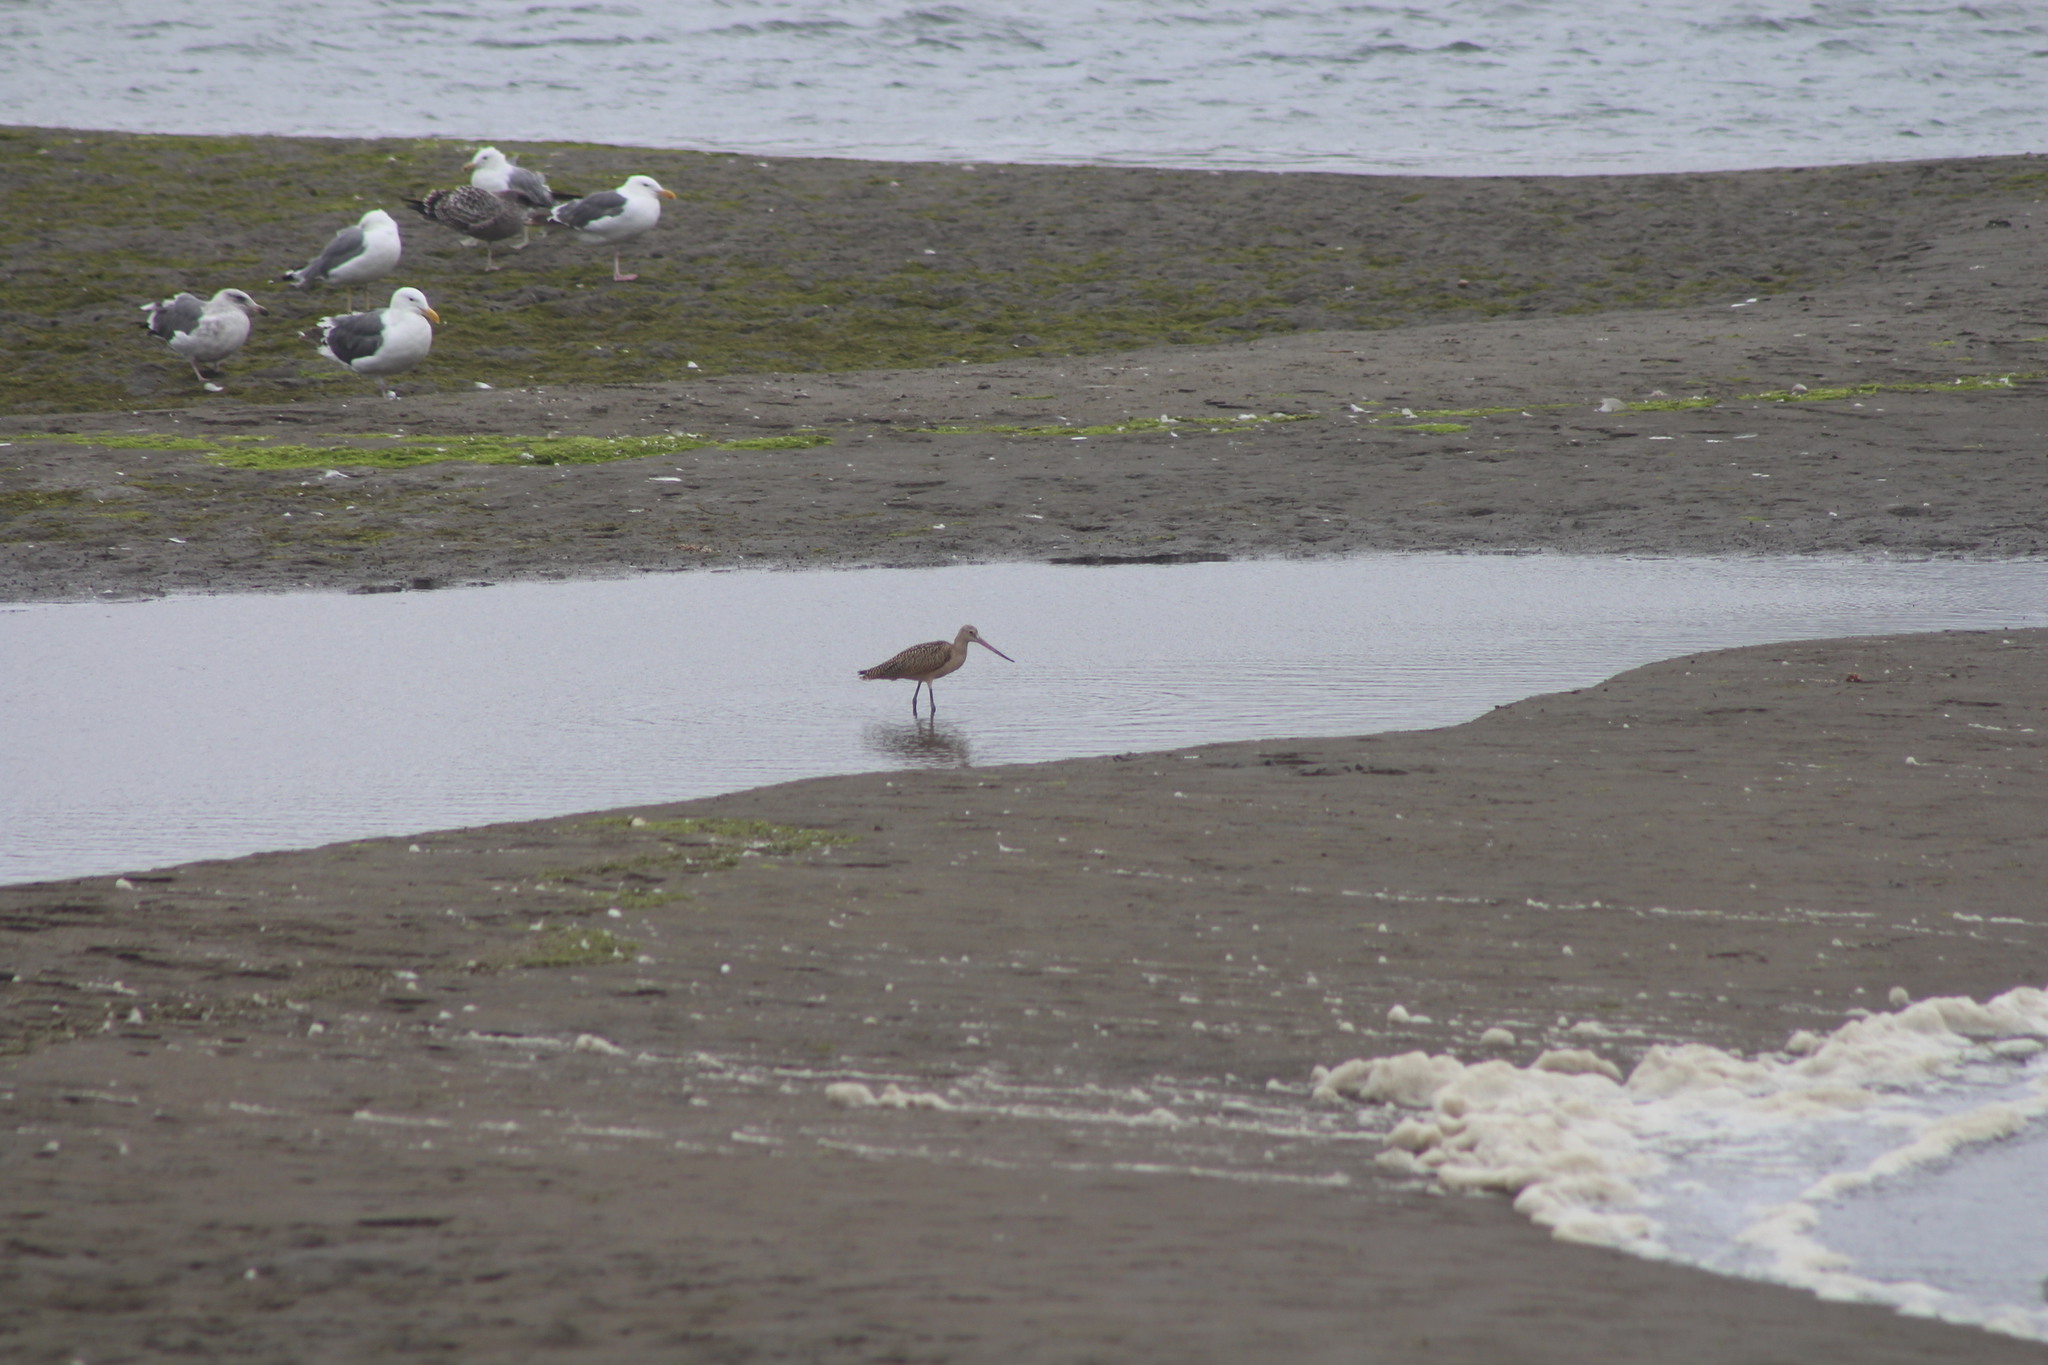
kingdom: Animalia
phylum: Chordata
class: Aves
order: Charadriiformes
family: Scolopacidae
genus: Limosa
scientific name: Limosa fedoa
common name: Marbled godwit
